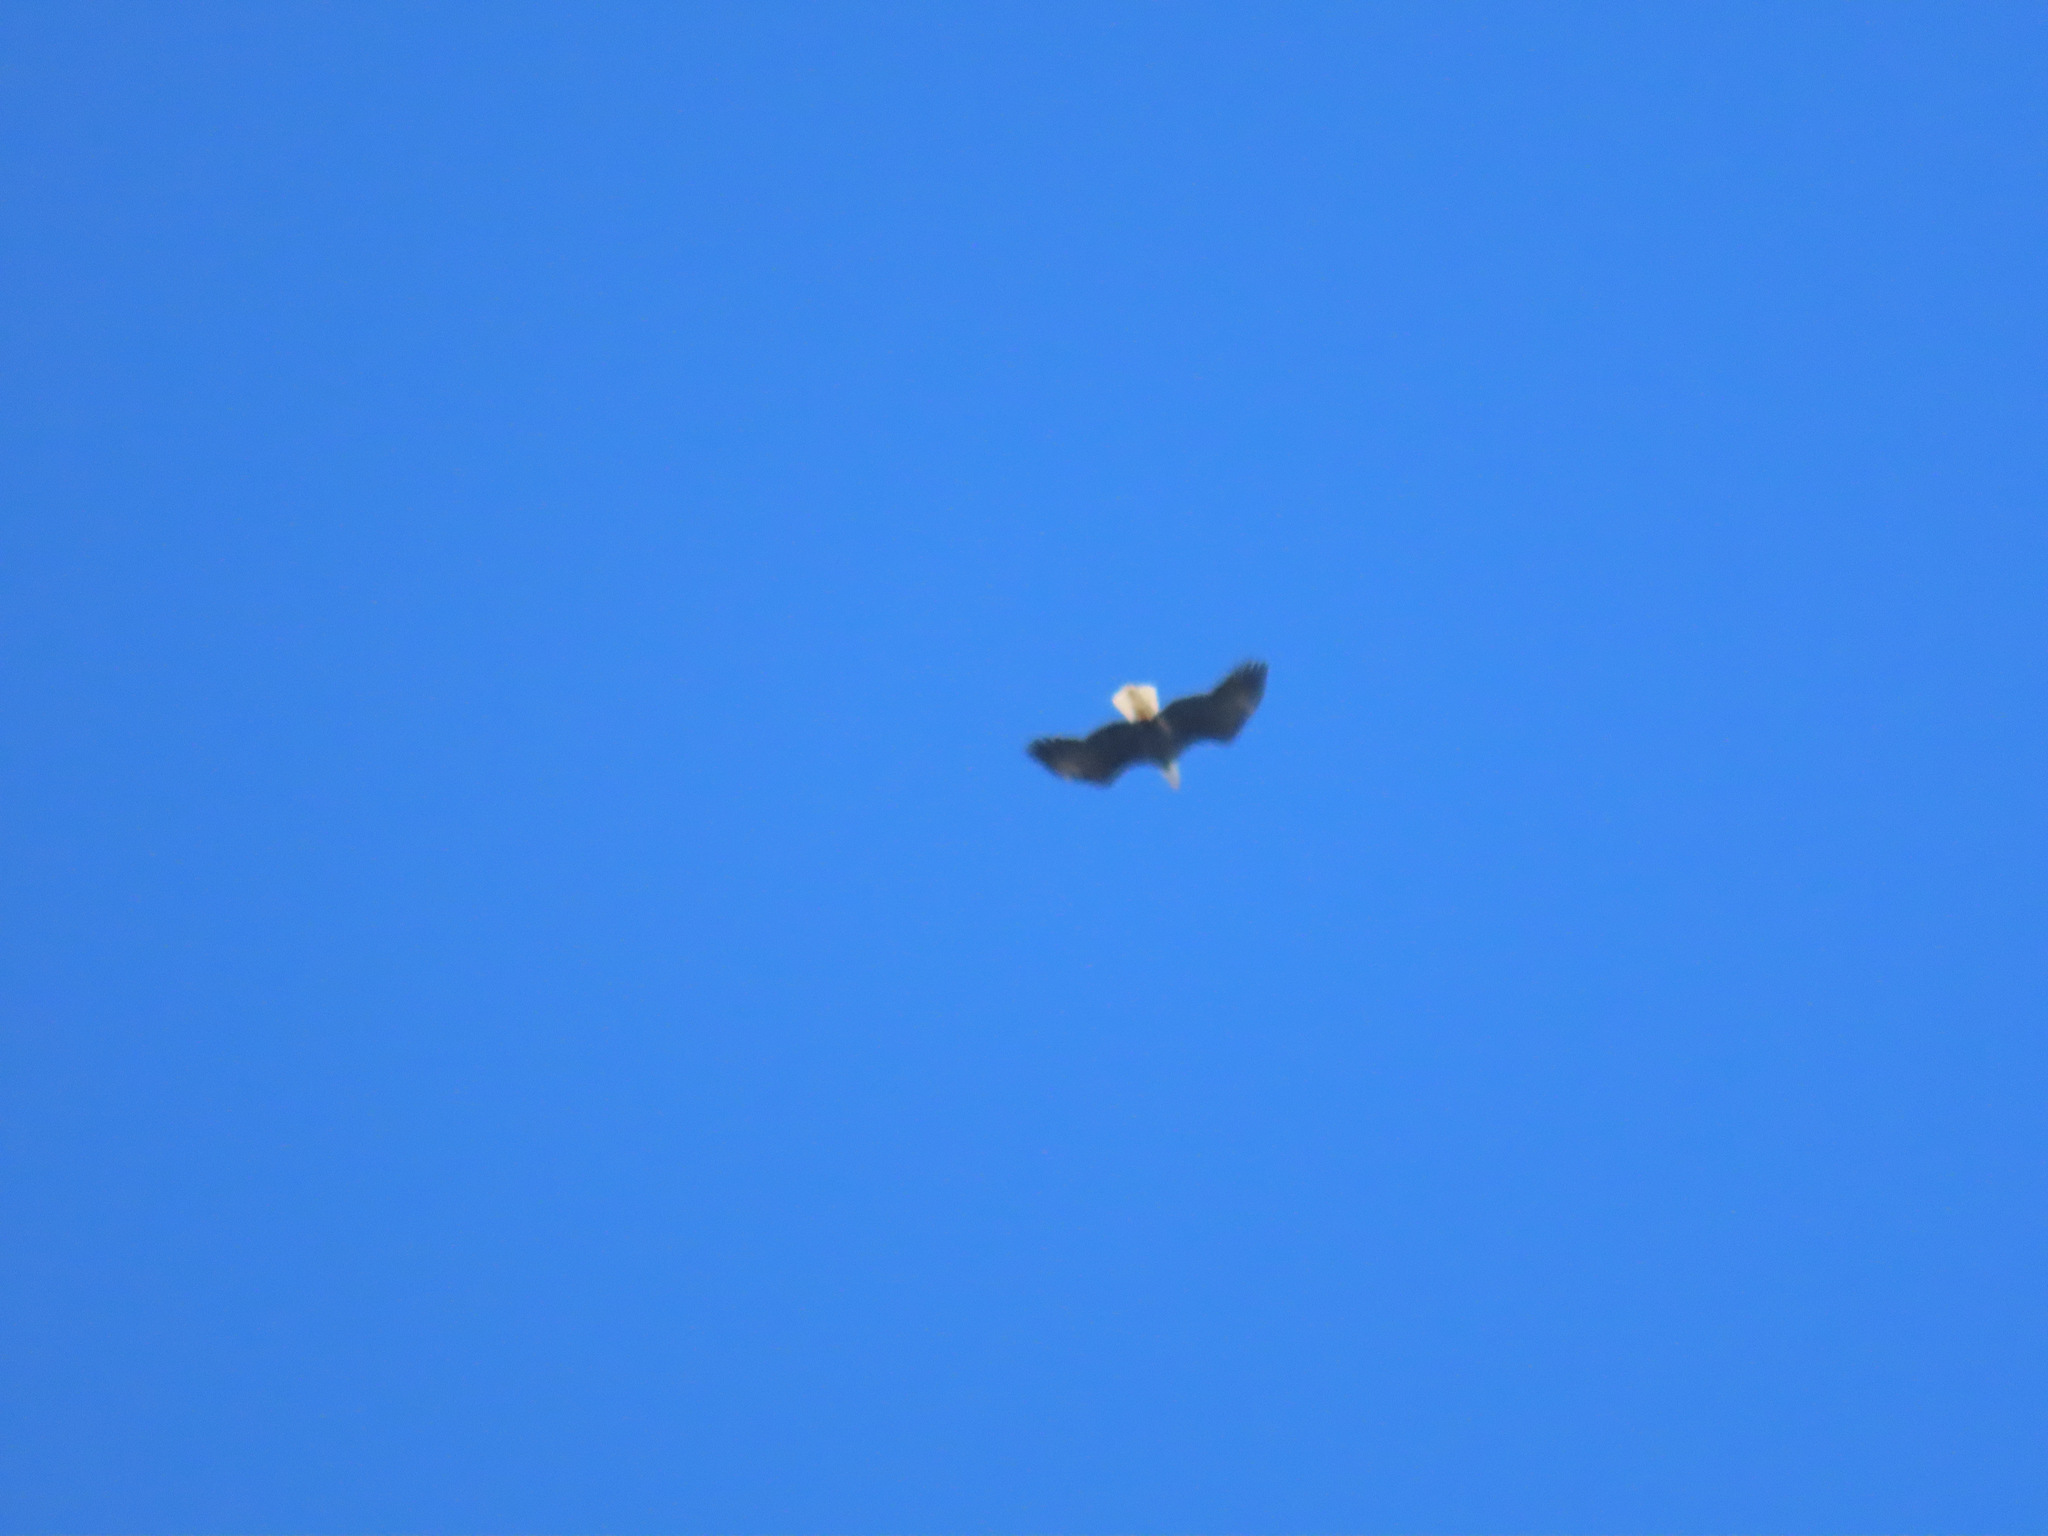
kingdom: Animalia
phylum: Chordata
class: Aves
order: Accipitriformes
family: Accipitridae
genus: Haliaeetus
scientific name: Haliaeetus leucocephalus
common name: Bald eagle
